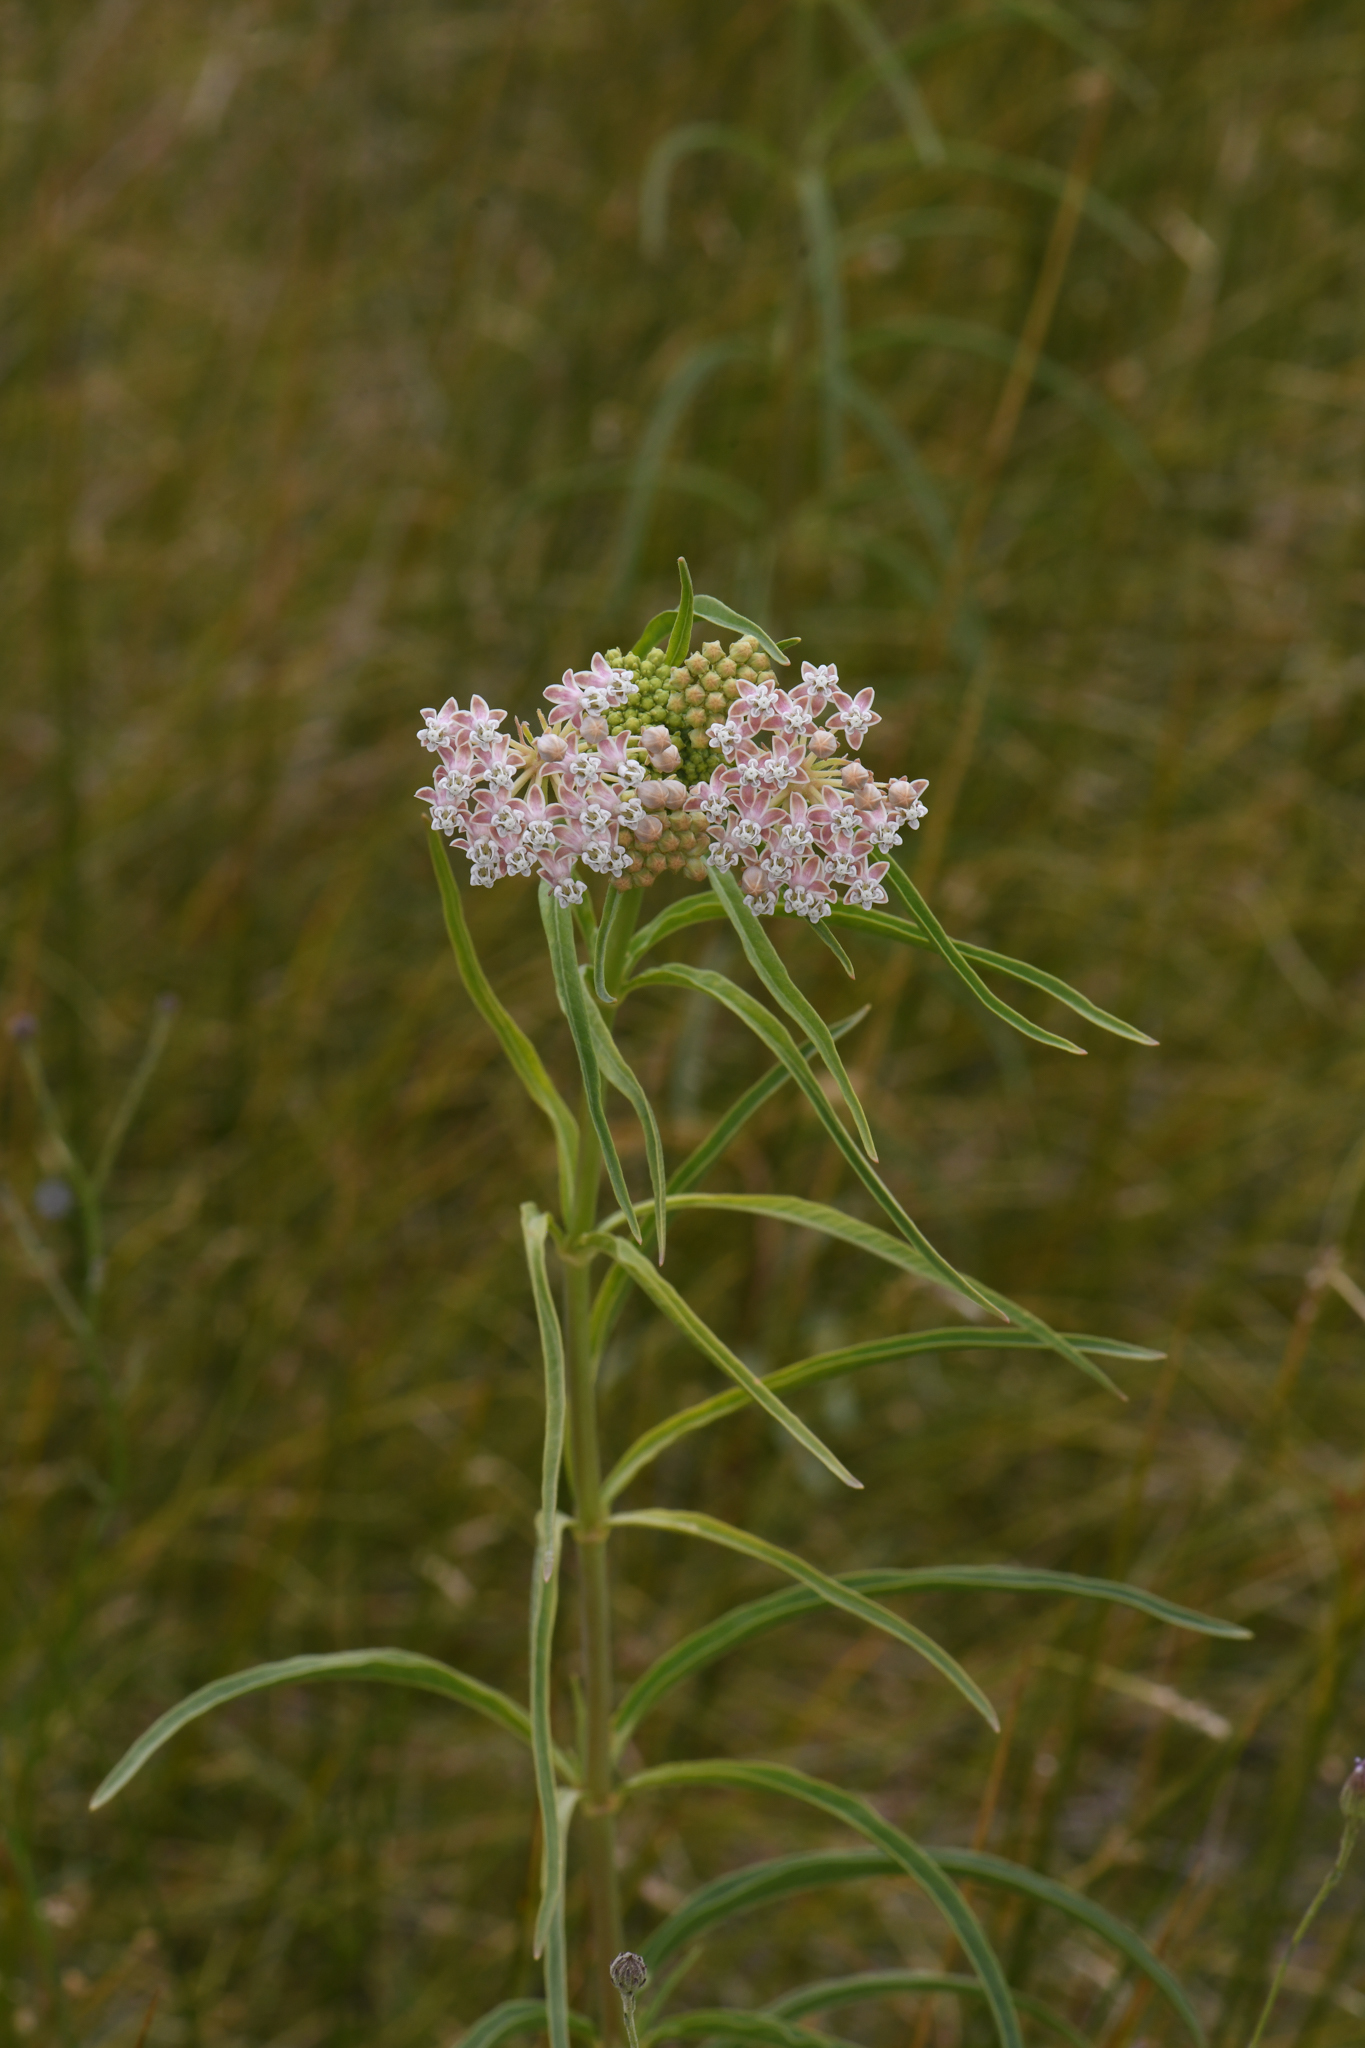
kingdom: Plantae
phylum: Tracheophyta
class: Magnoliopsida
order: Gentianales
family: Apocynaceae
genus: Asclepias
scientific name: Asclepias fascicularis
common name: Mexican milkweed
